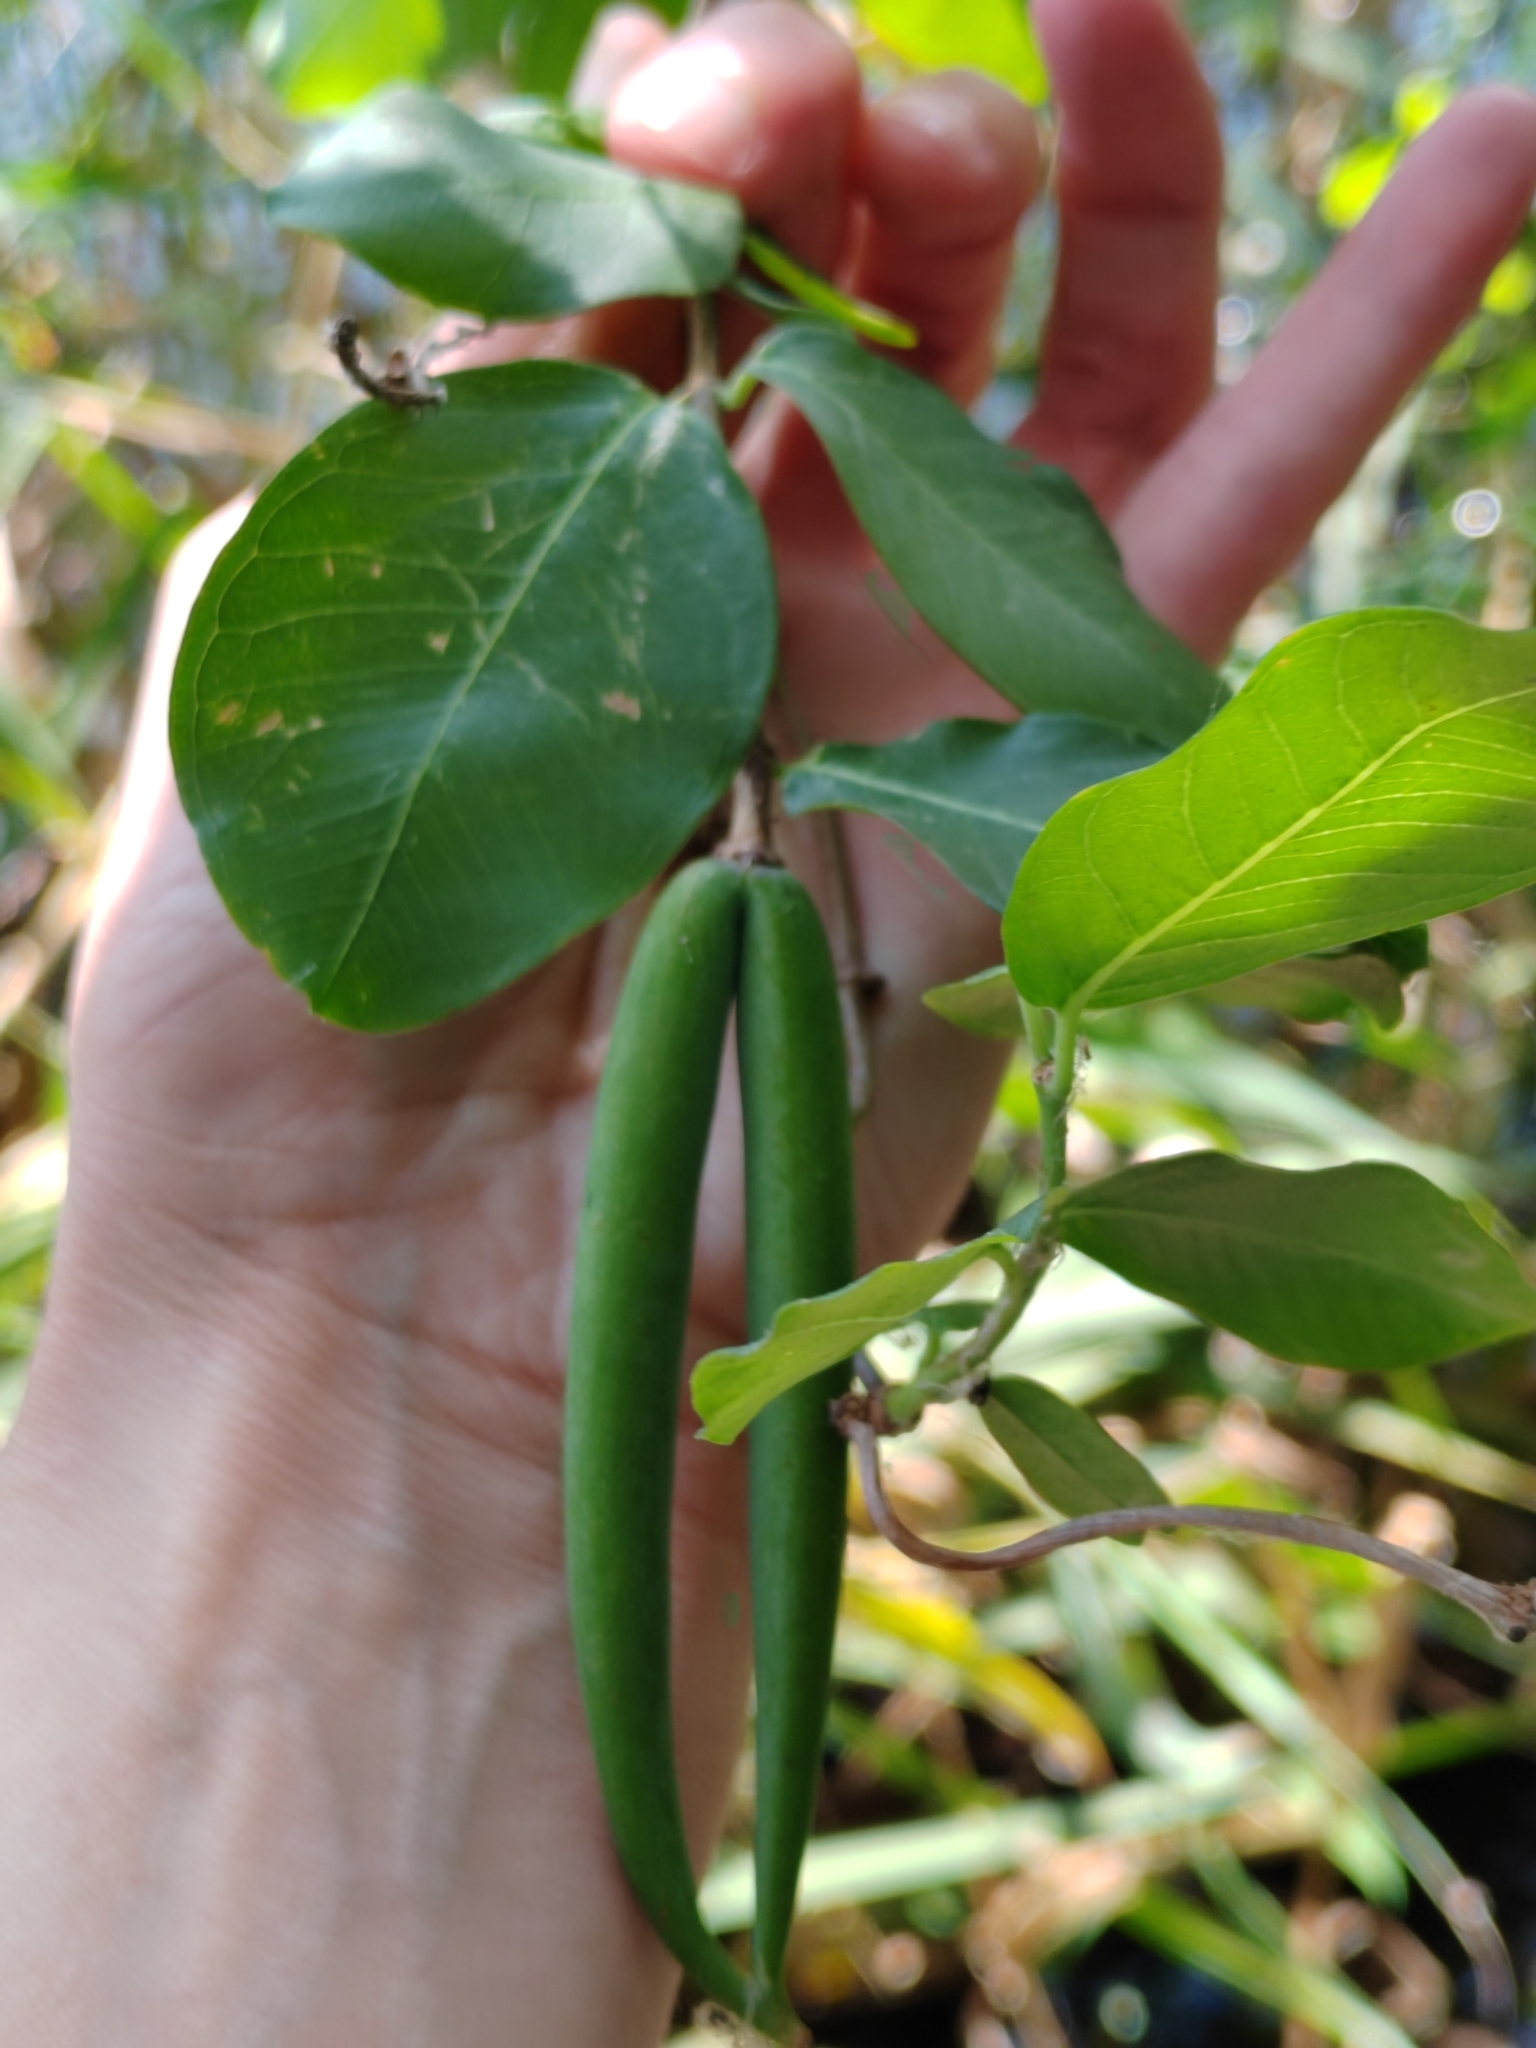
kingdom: Plantae
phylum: Tracheophyta
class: Magnoliopsida
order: Gentianales
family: Apocynaceae
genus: Periploca
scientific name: Periploca graeca
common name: Silkvine
